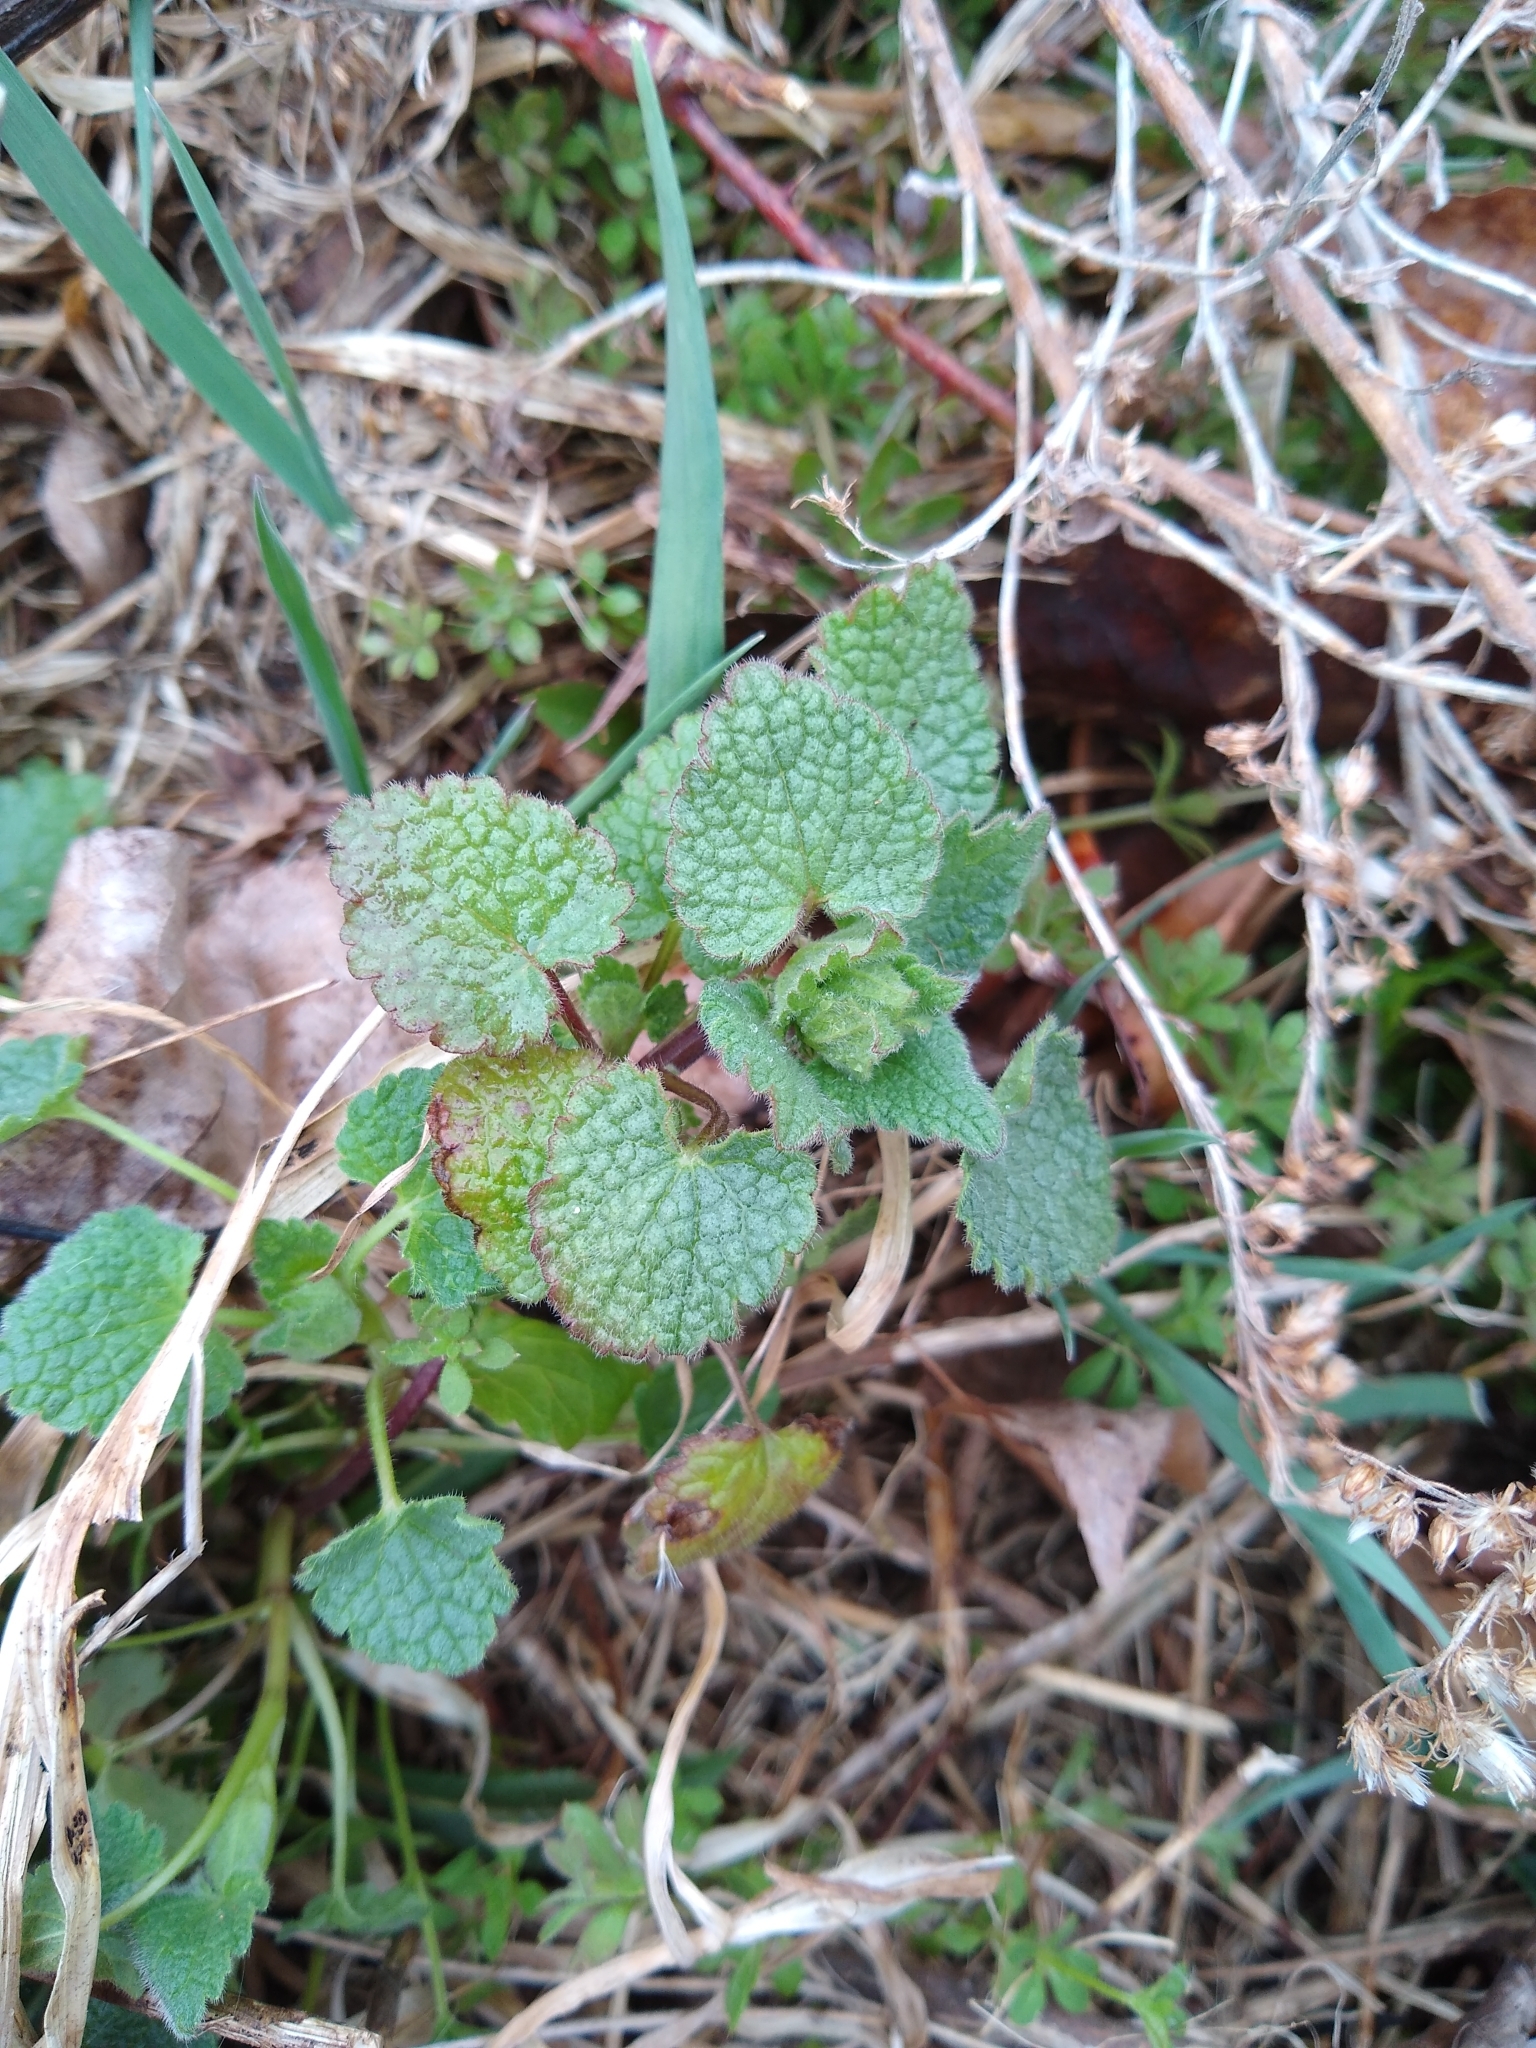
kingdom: Plantae
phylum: Tracheophyta
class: Magnoliopsida
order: Lamiales
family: Lamiaceae
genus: Lamium
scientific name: Lamium purpureum
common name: Red dead-nettle
